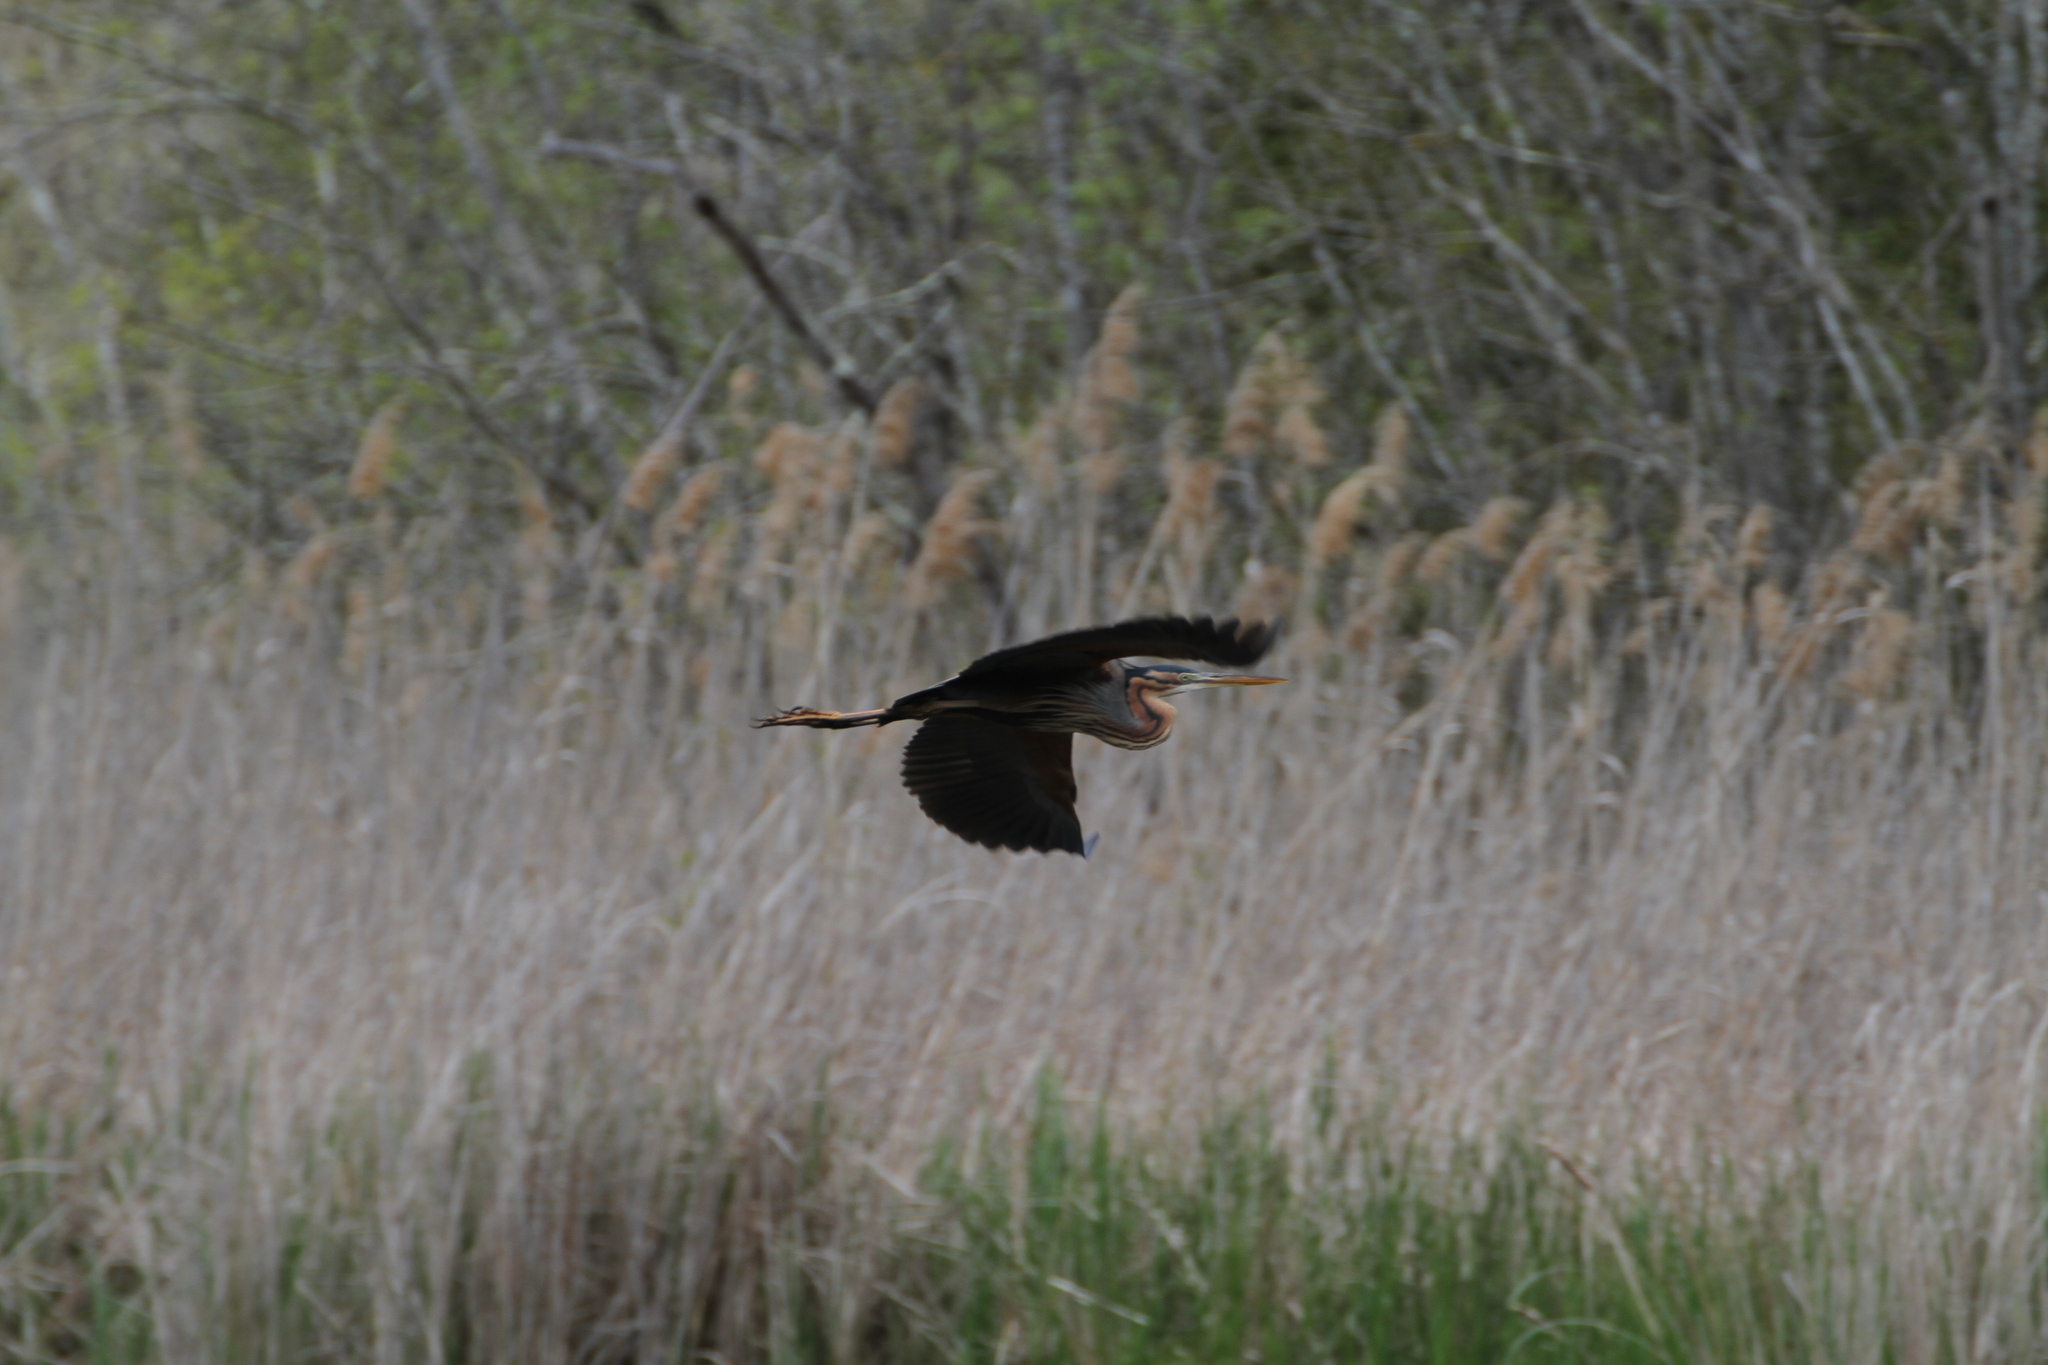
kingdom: Animalia
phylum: Chordata
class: Aves
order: Pelecaniformes
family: Ardeidae
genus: Ardea
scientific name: Ardea purpurea
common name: Purple heron
